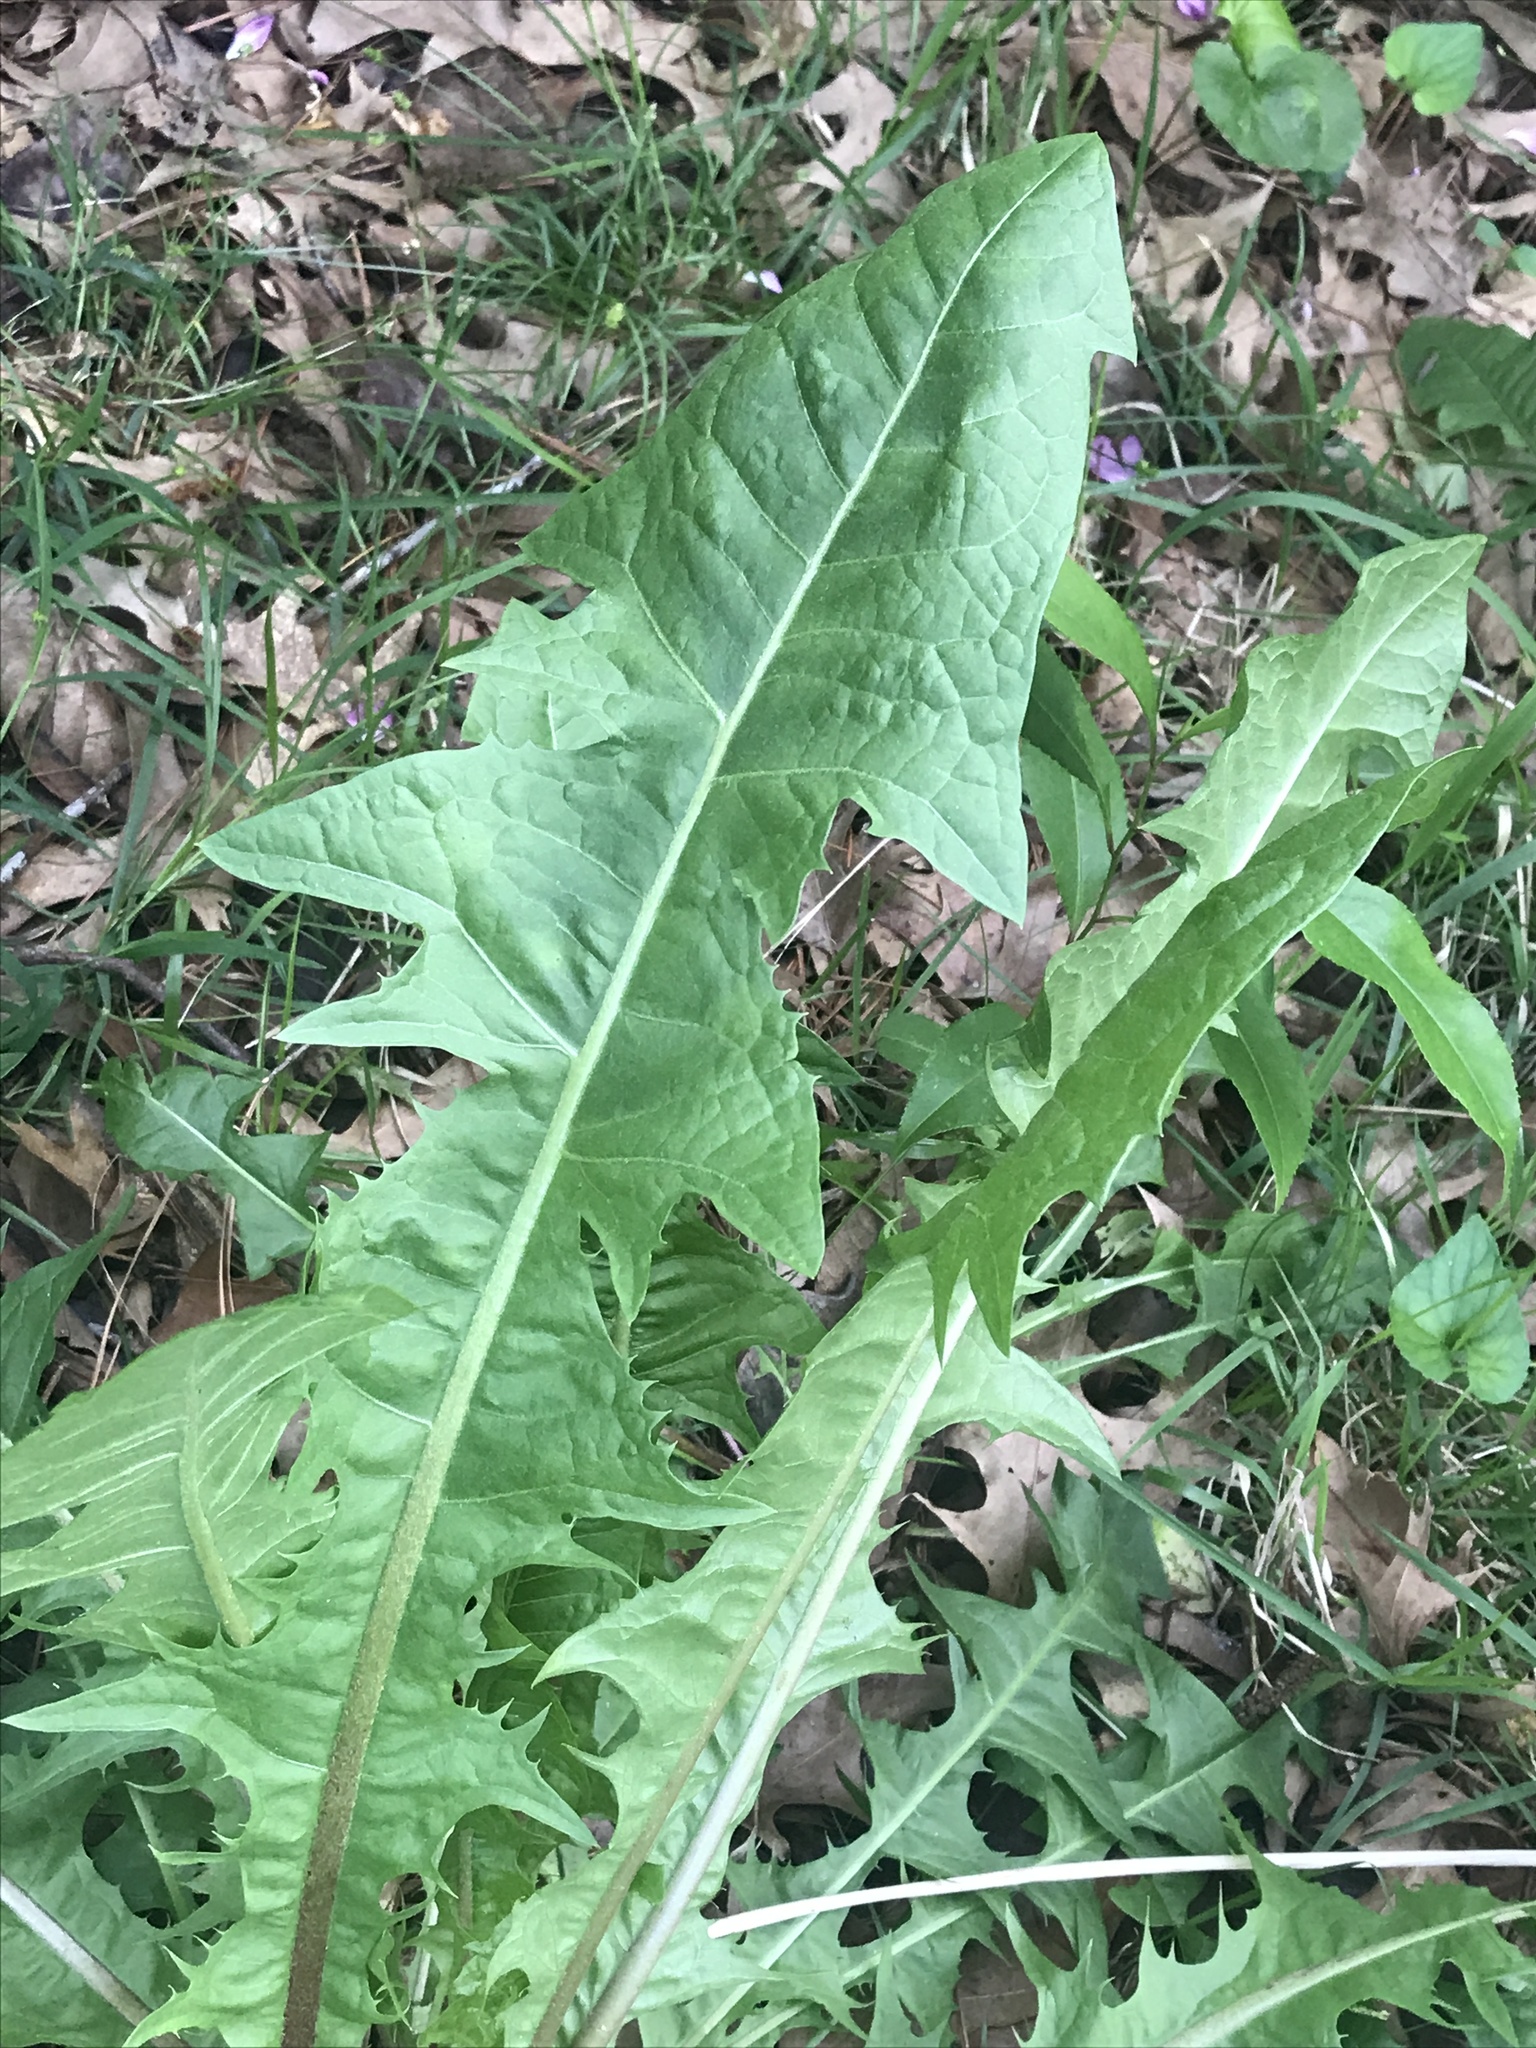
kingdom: Plantae
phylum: Tracheophyta
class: Magnoliopsida
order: Asterales
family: Asteraceae
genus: Taraxacum
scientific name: Taraxacum officinale
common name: Common dandelion
